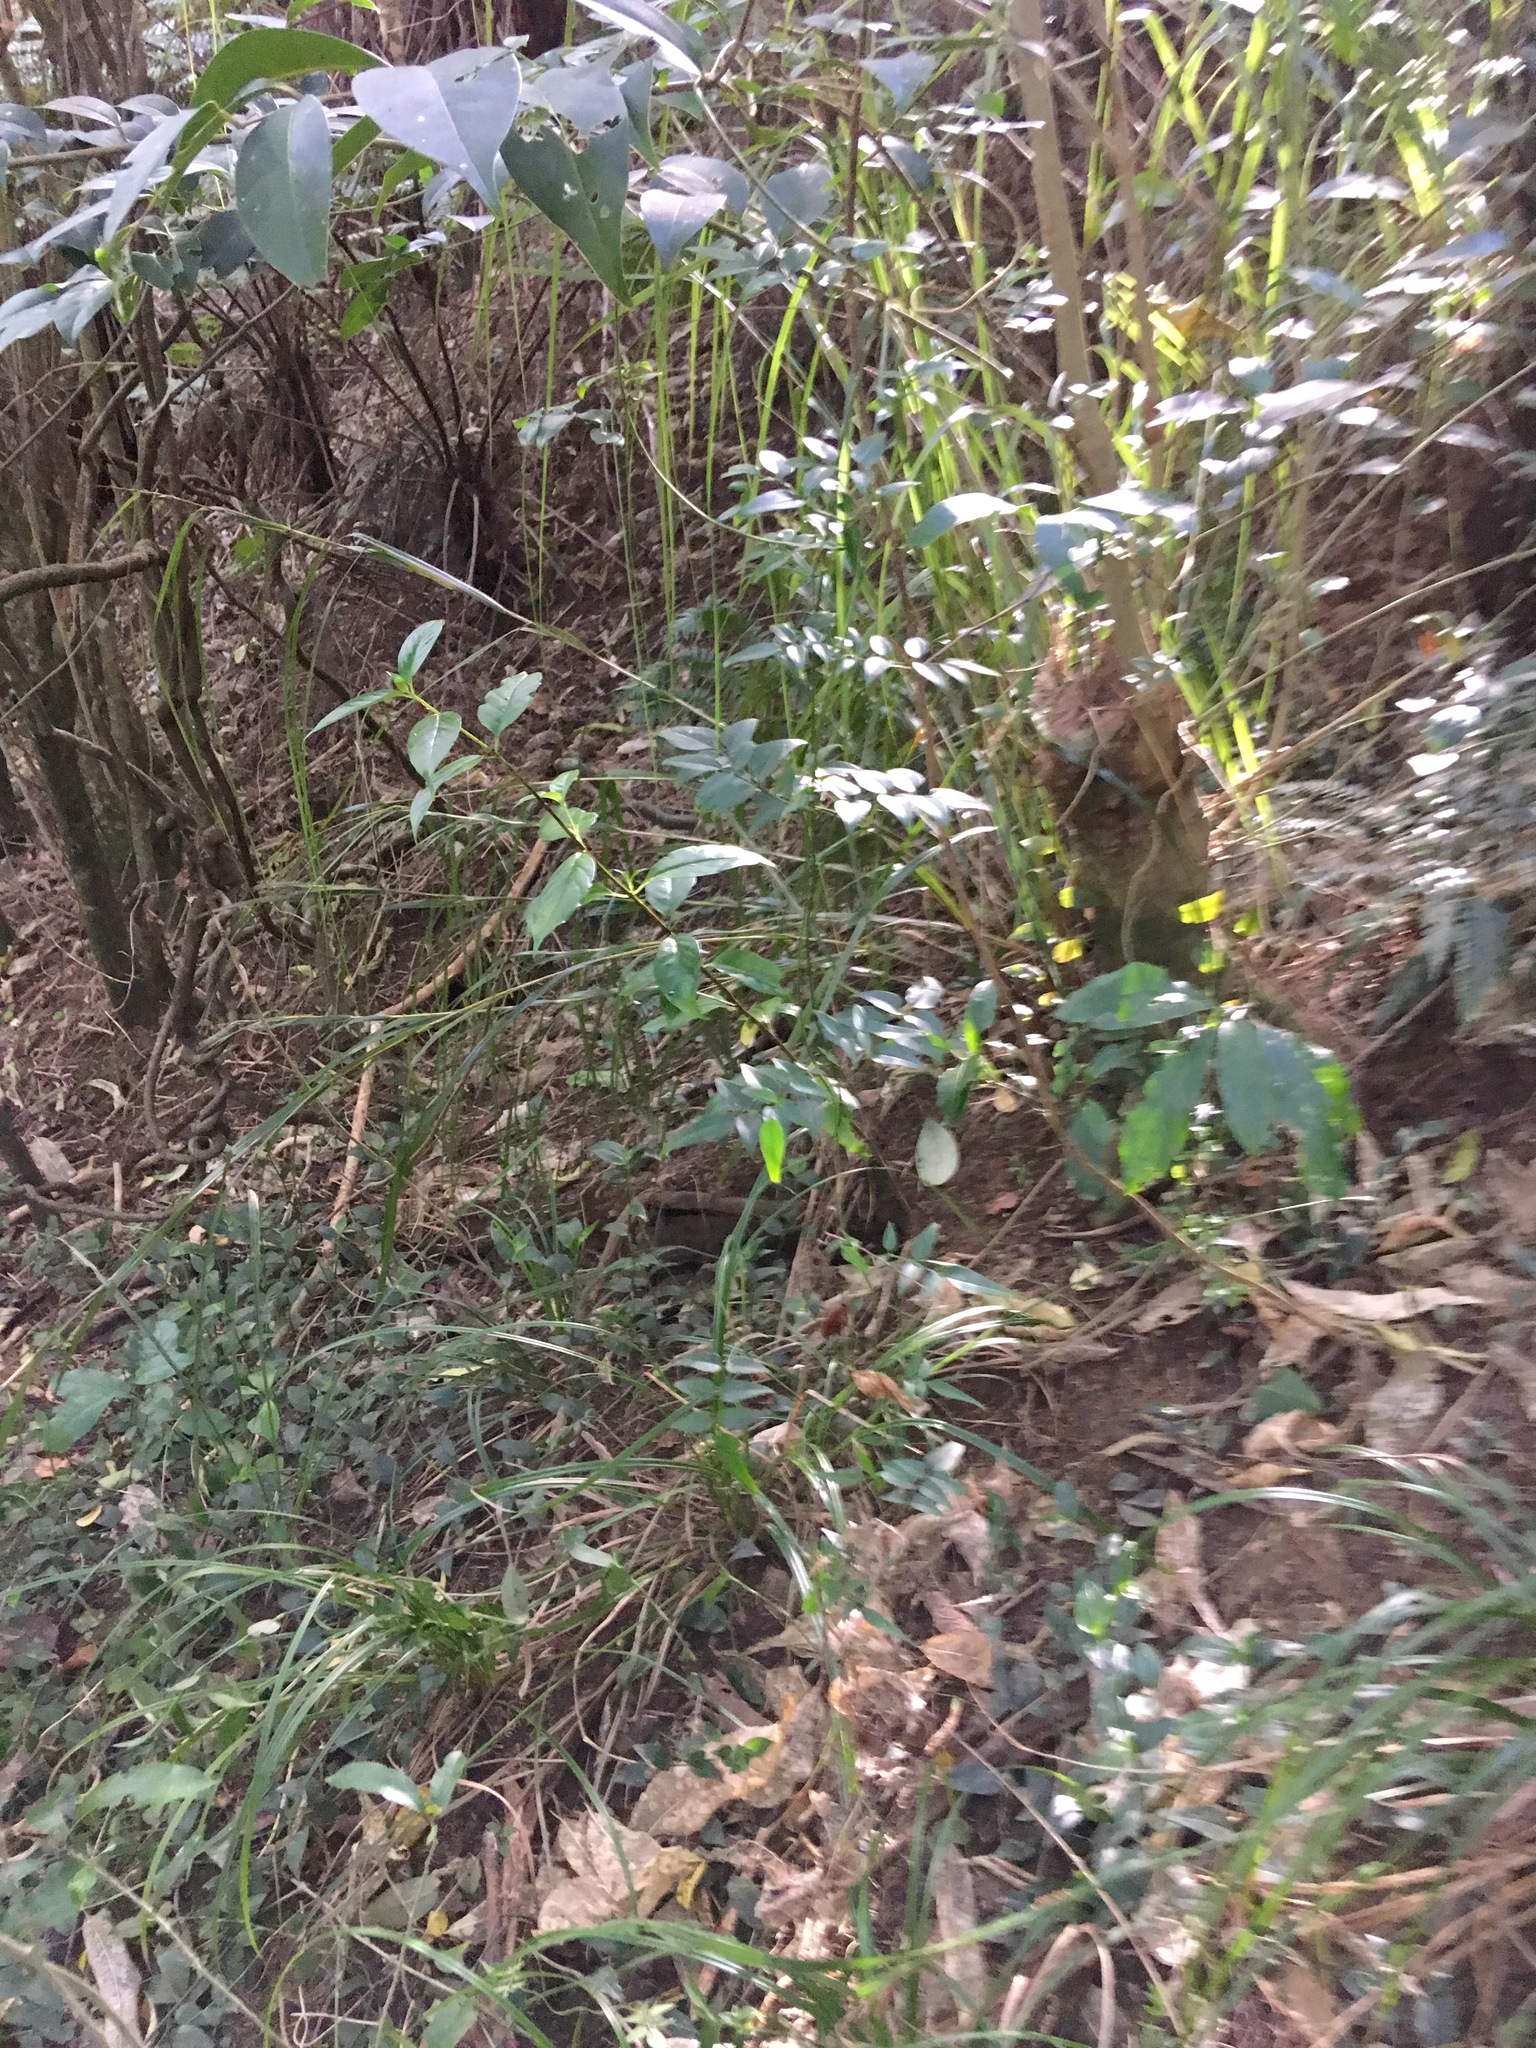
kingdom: Plantae
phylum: Tracheophyta
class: Magnoliopsida
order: Lamiales
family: Oleaceae
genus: Jasminum
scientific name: Jasminum polyanthum
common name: Pink jasmine
